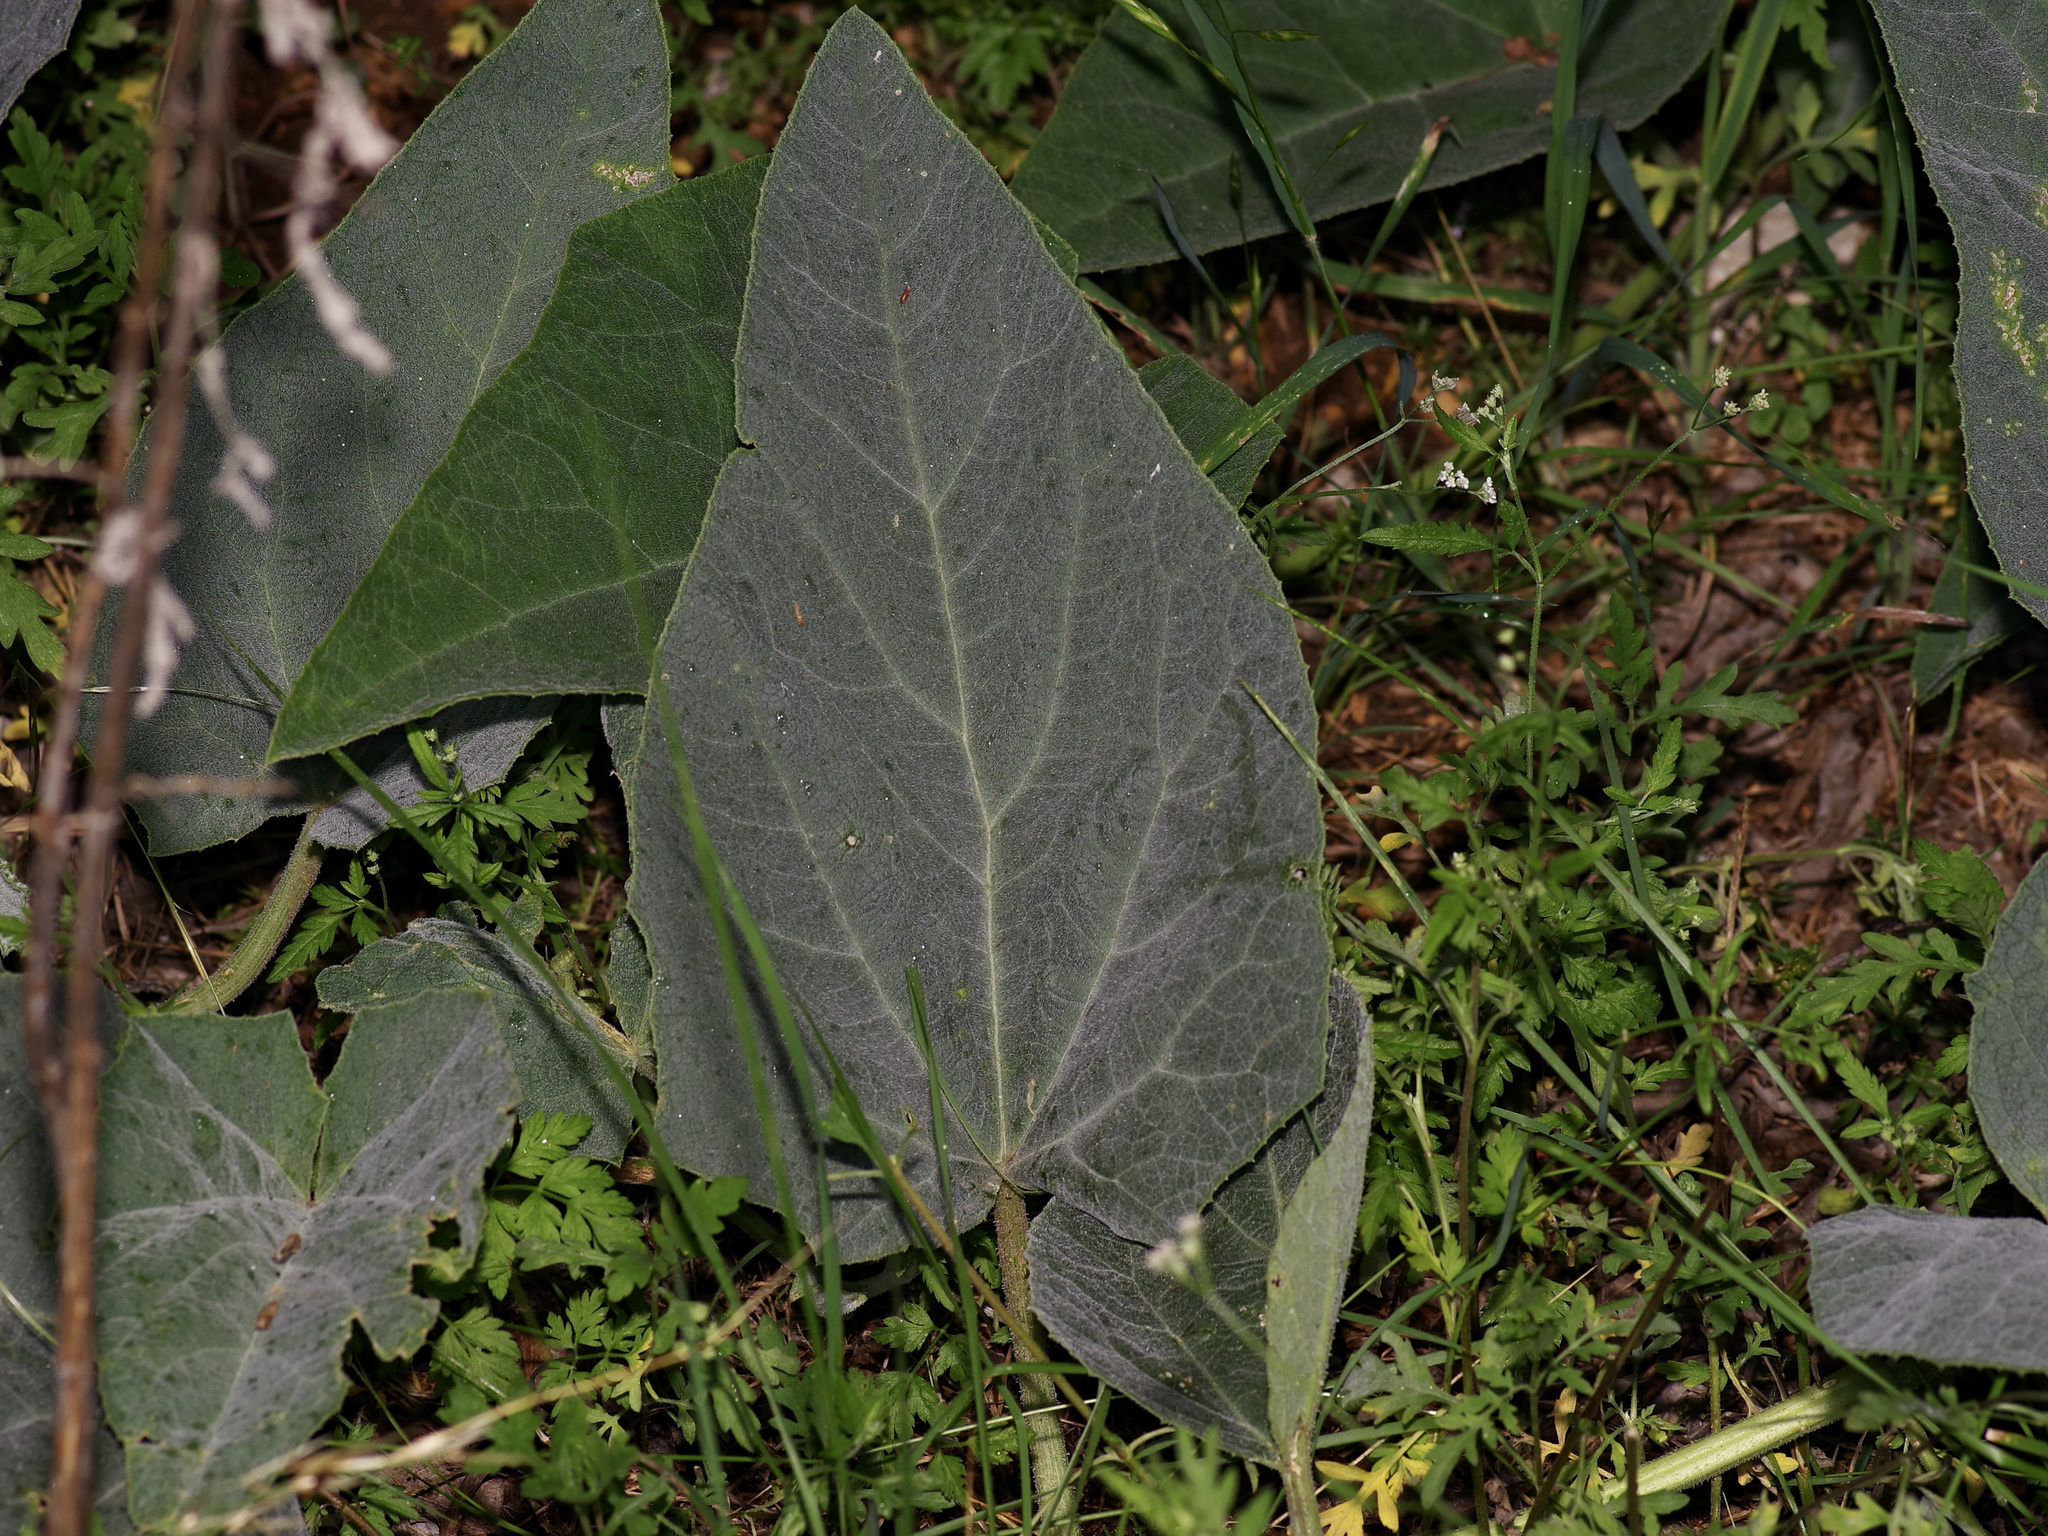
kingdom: Plantae
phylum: Tracheophyta
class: Magnoliopsida
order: Cucurbitales
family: Cucurbitaceae
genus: Cucurbita
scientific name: Cucurbita foetidissima
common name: Buffalo gourd
